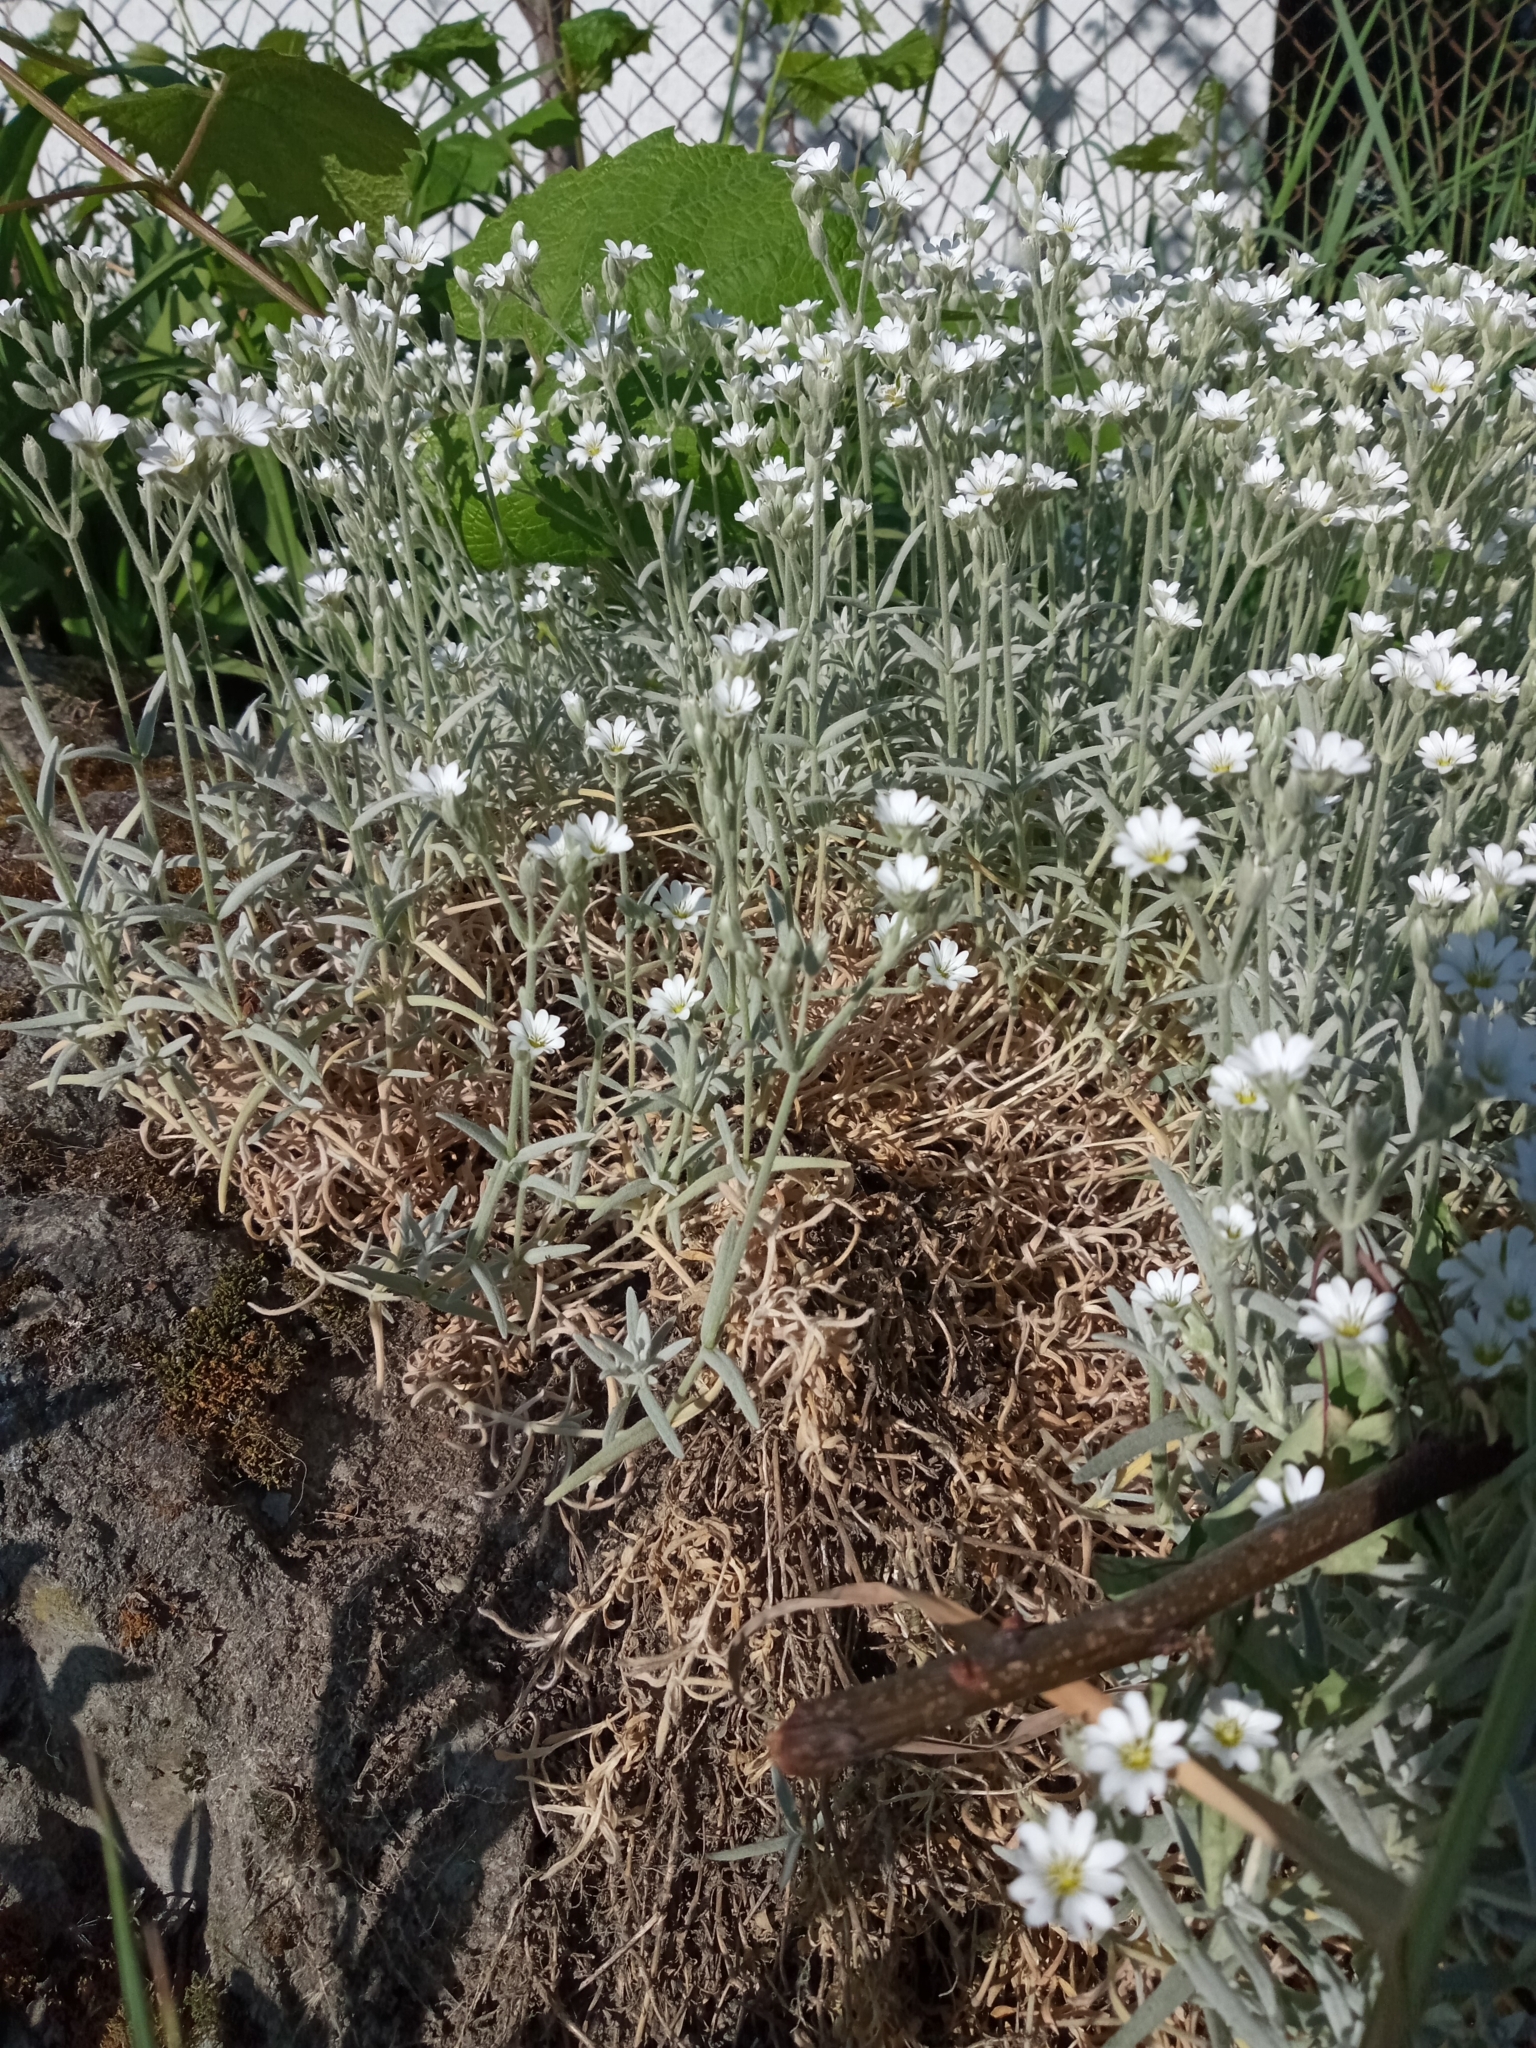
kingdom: Plantae
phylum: Tracheophyta
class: Magnoliopsida
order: Caryophyllales
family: Caryophyllaceae
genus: Cerastium
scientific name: Cerastium tomentosum
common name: Snow-in-summer
